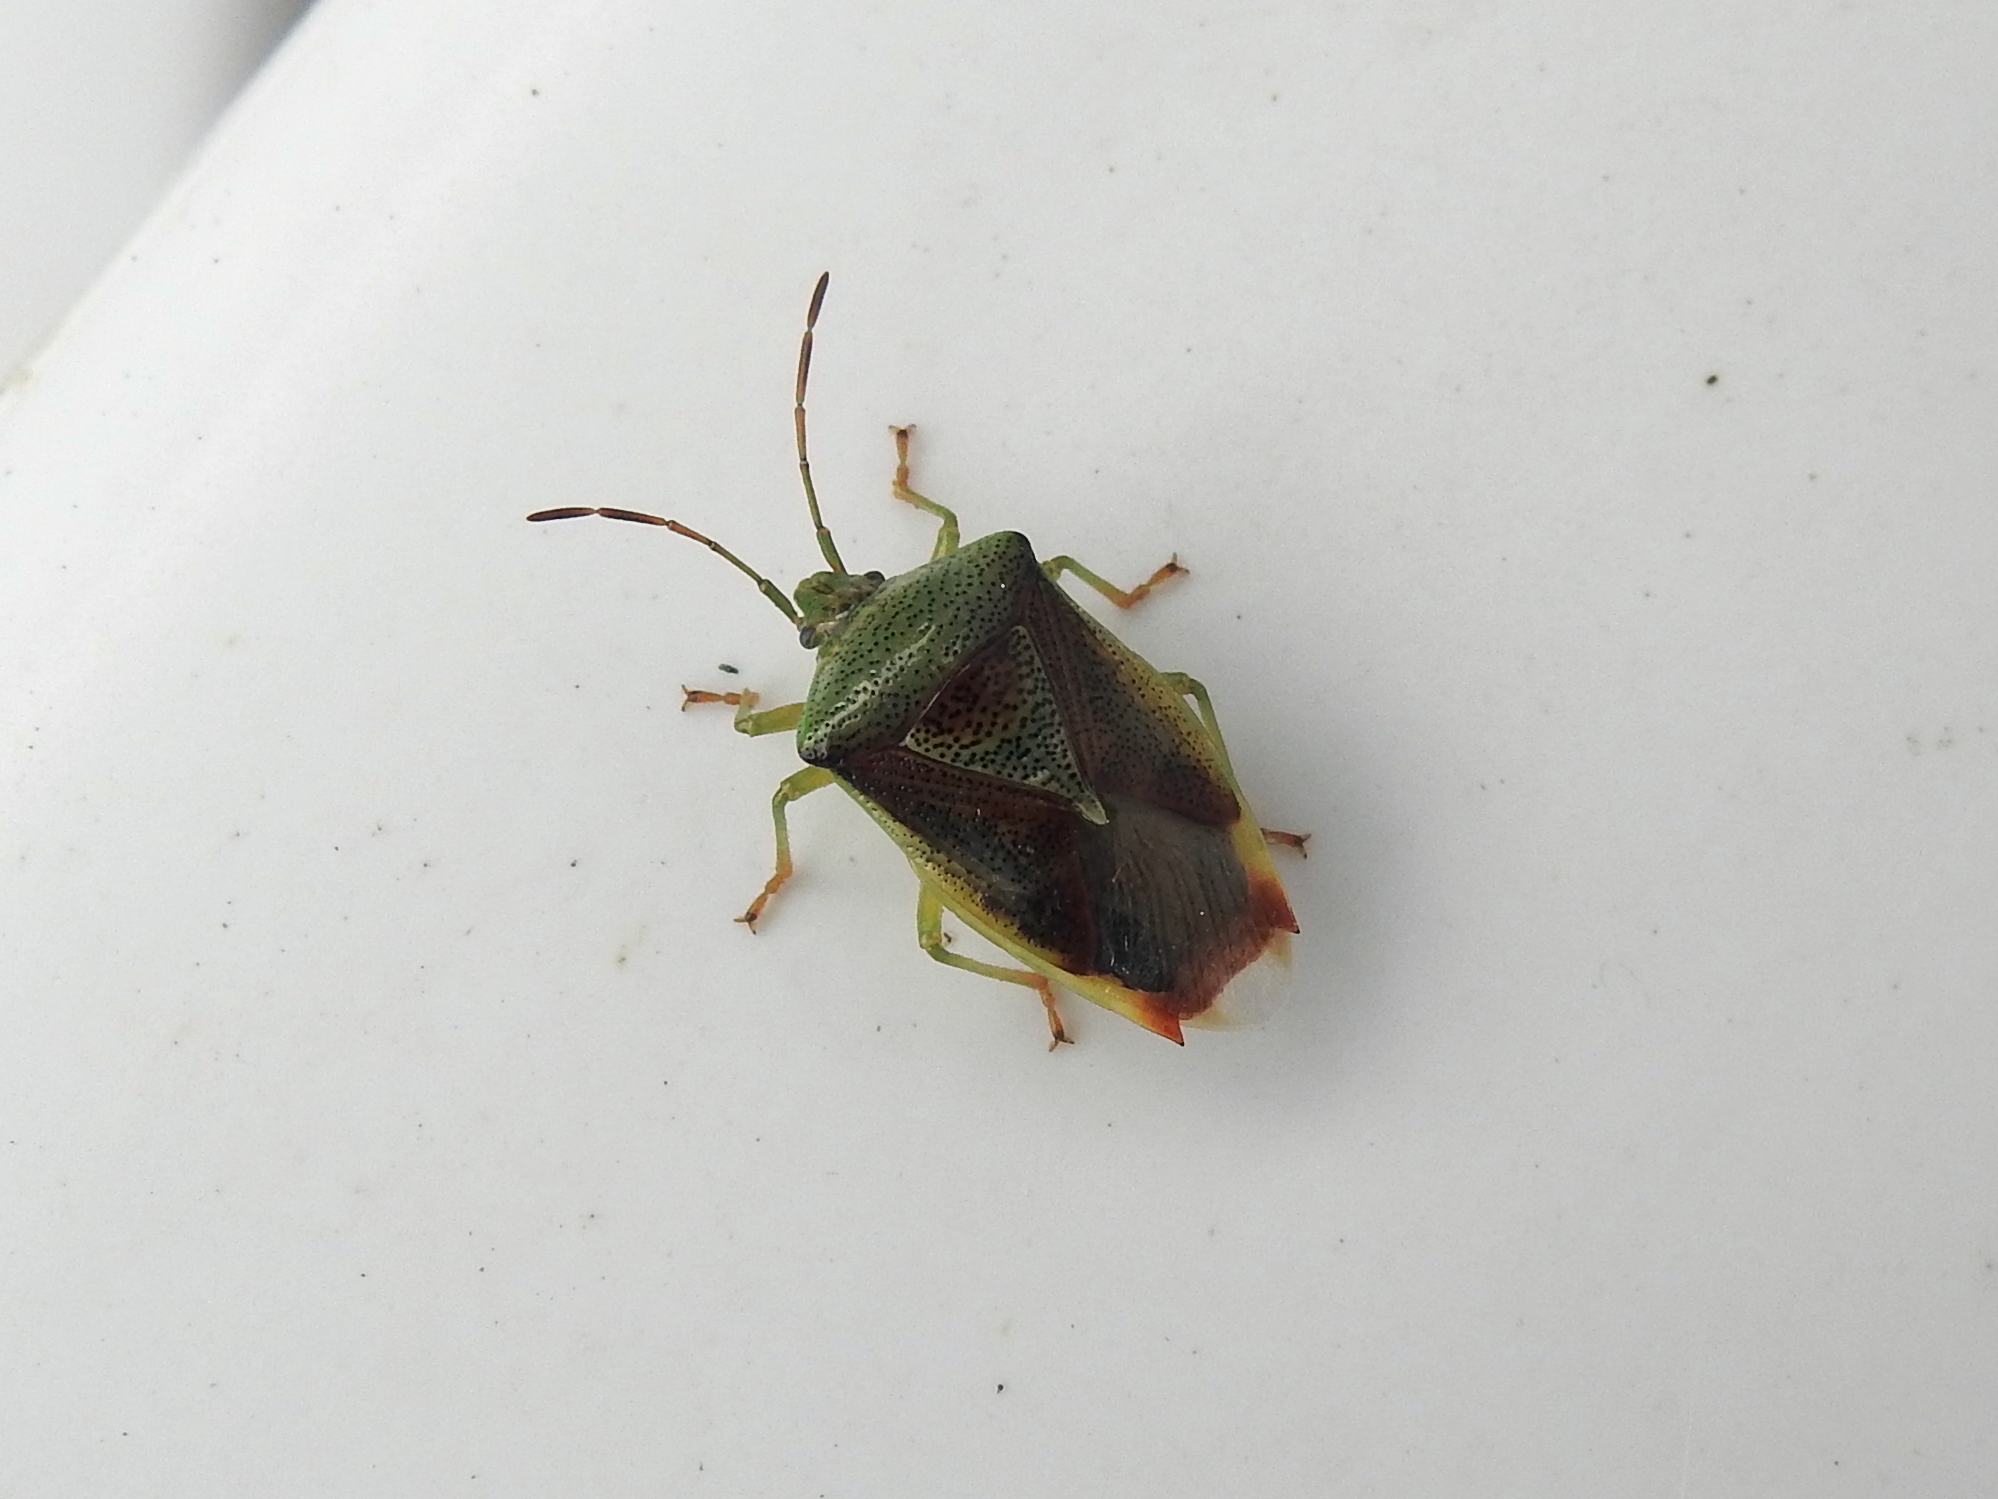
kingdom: Animalia
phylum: Arthropoda
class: Insecta
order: Hemiptera
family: Acanthosomatidae
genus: Elasmostethus
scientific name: Elasmostethus interstinctus
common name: Birch shieldbug
